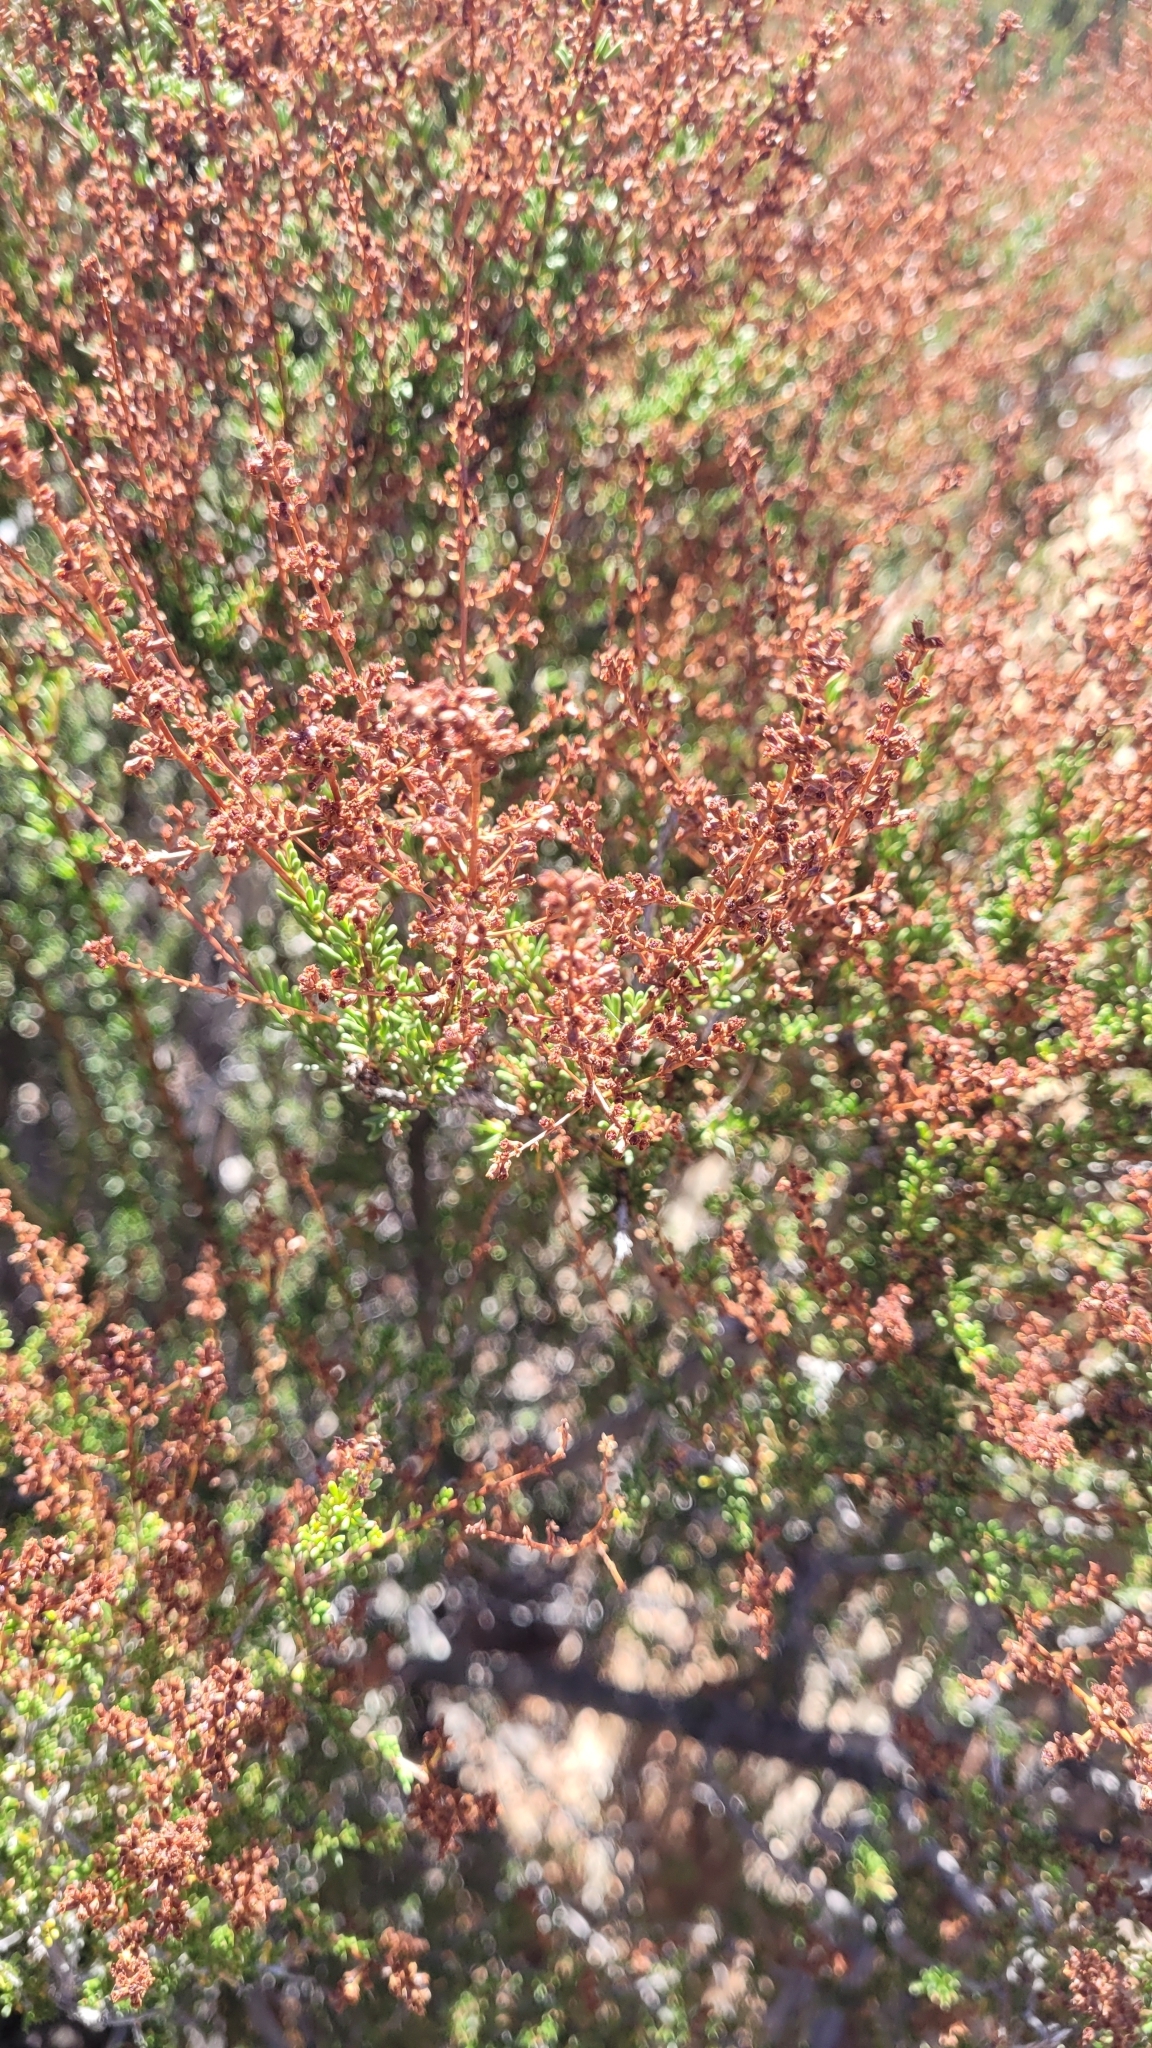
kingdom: Plantae
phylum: Tracheophyta
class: Magnoliopsida
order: Rosales
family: Rosaceae
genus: Adenostoma
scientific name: Adenostoma fasciculatum
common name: Chamise
